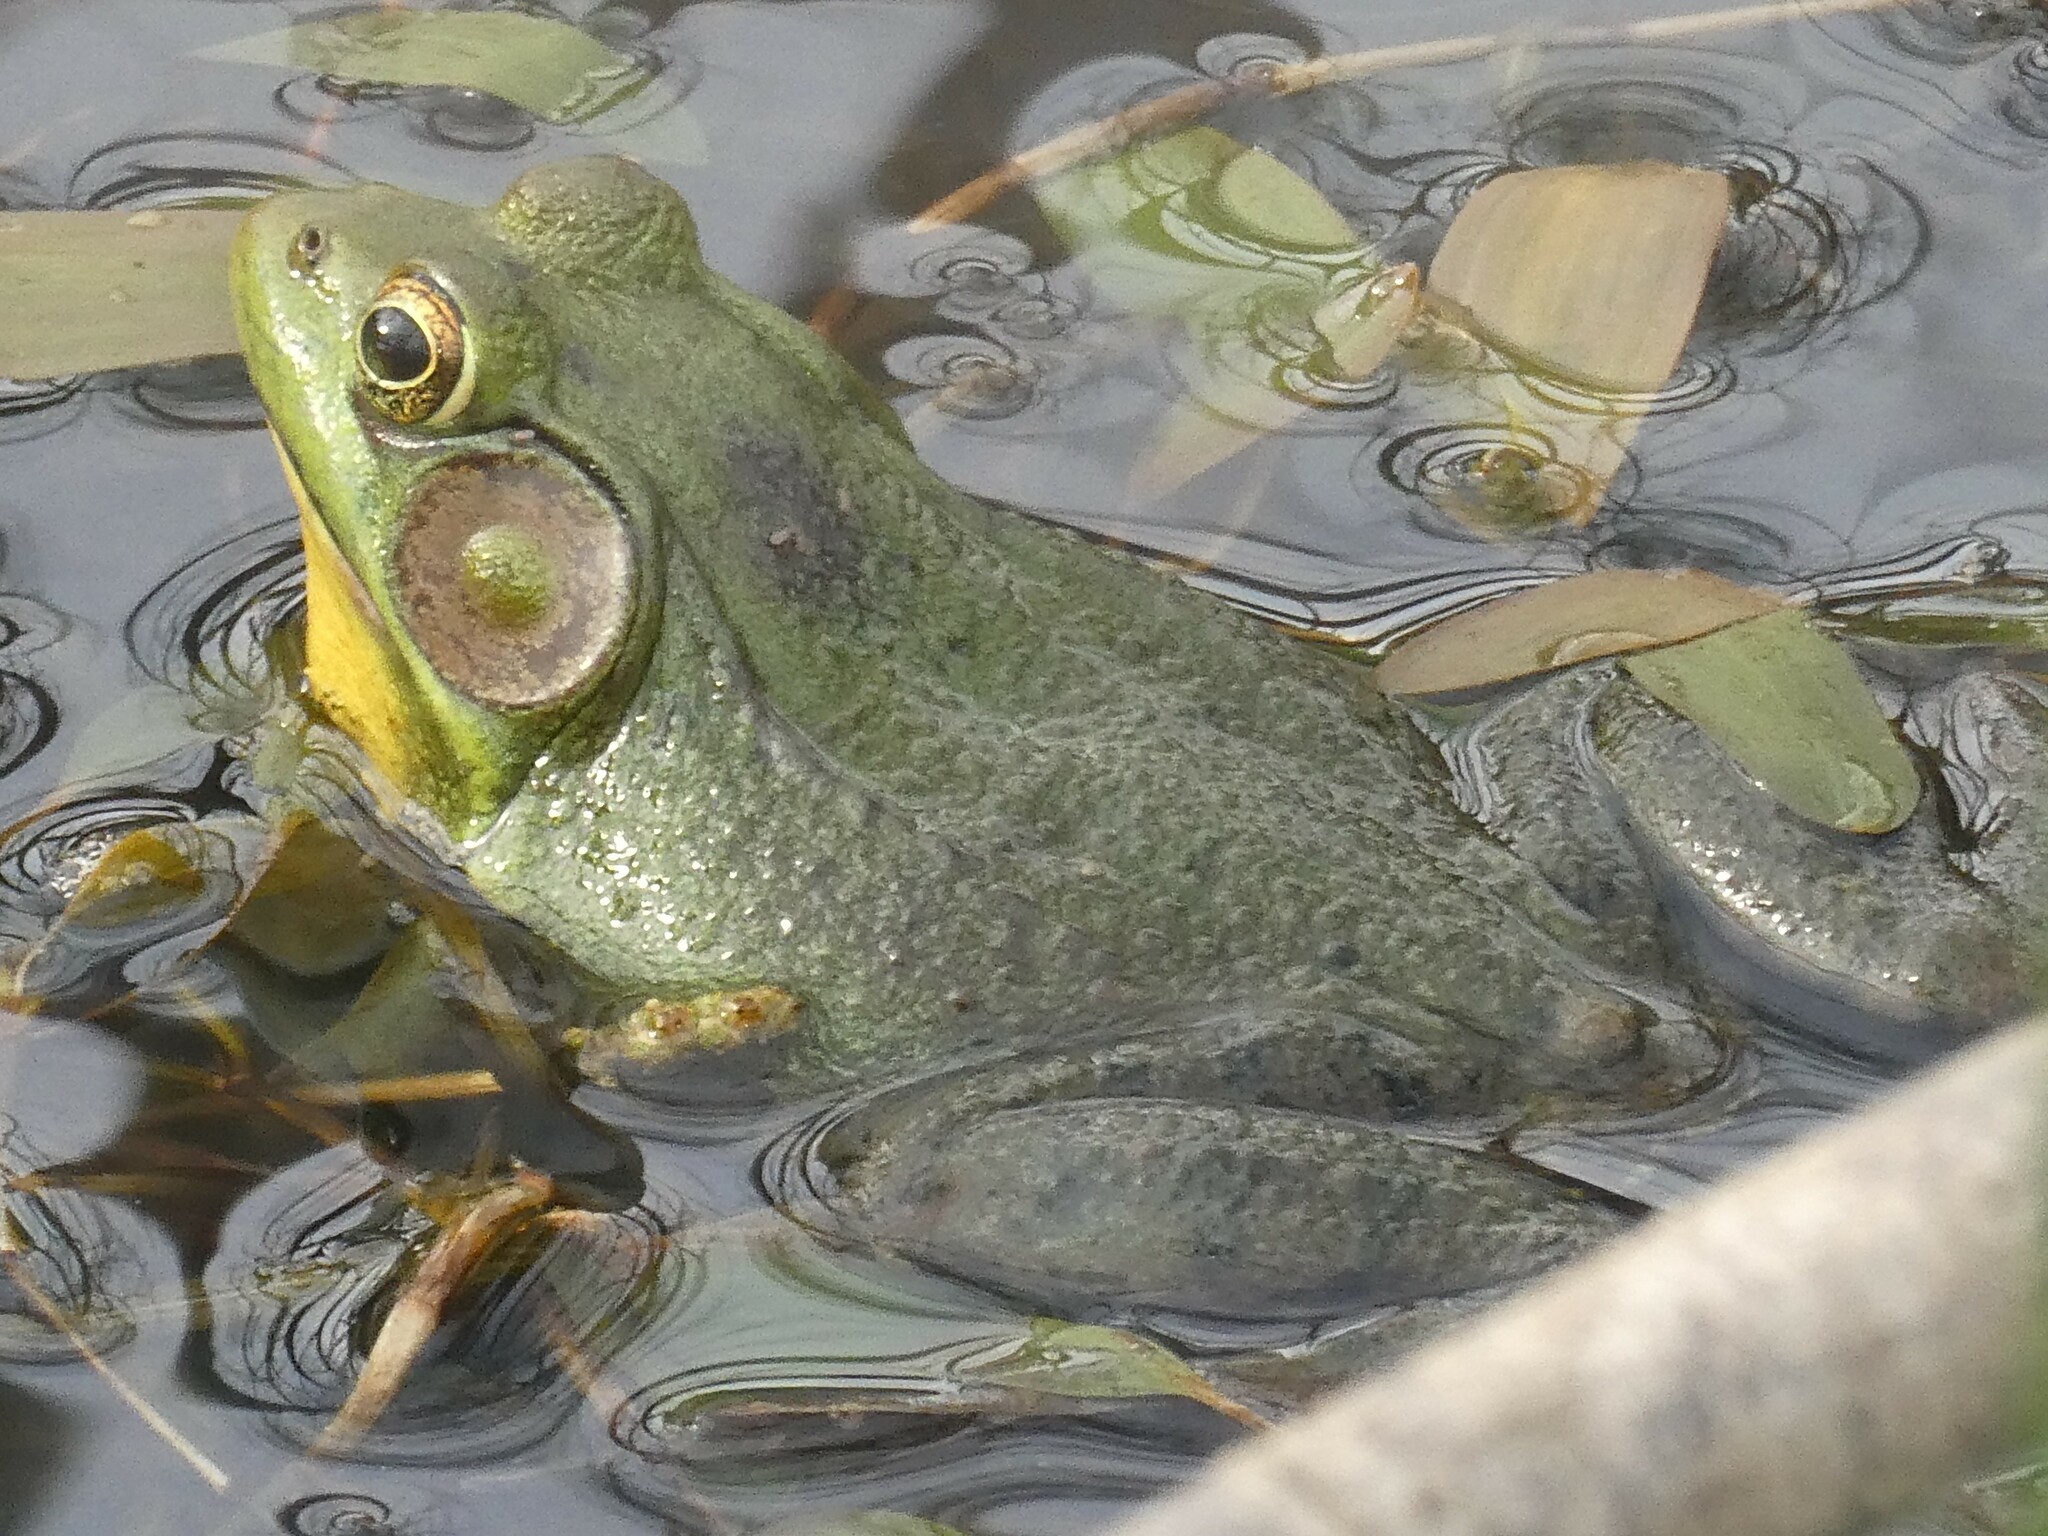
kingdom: Animalia
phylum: Chordata
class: Amphibia
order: Anura
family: Ranidae
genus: Lithobates
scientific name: Lithobates clamitans
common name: Green frog
